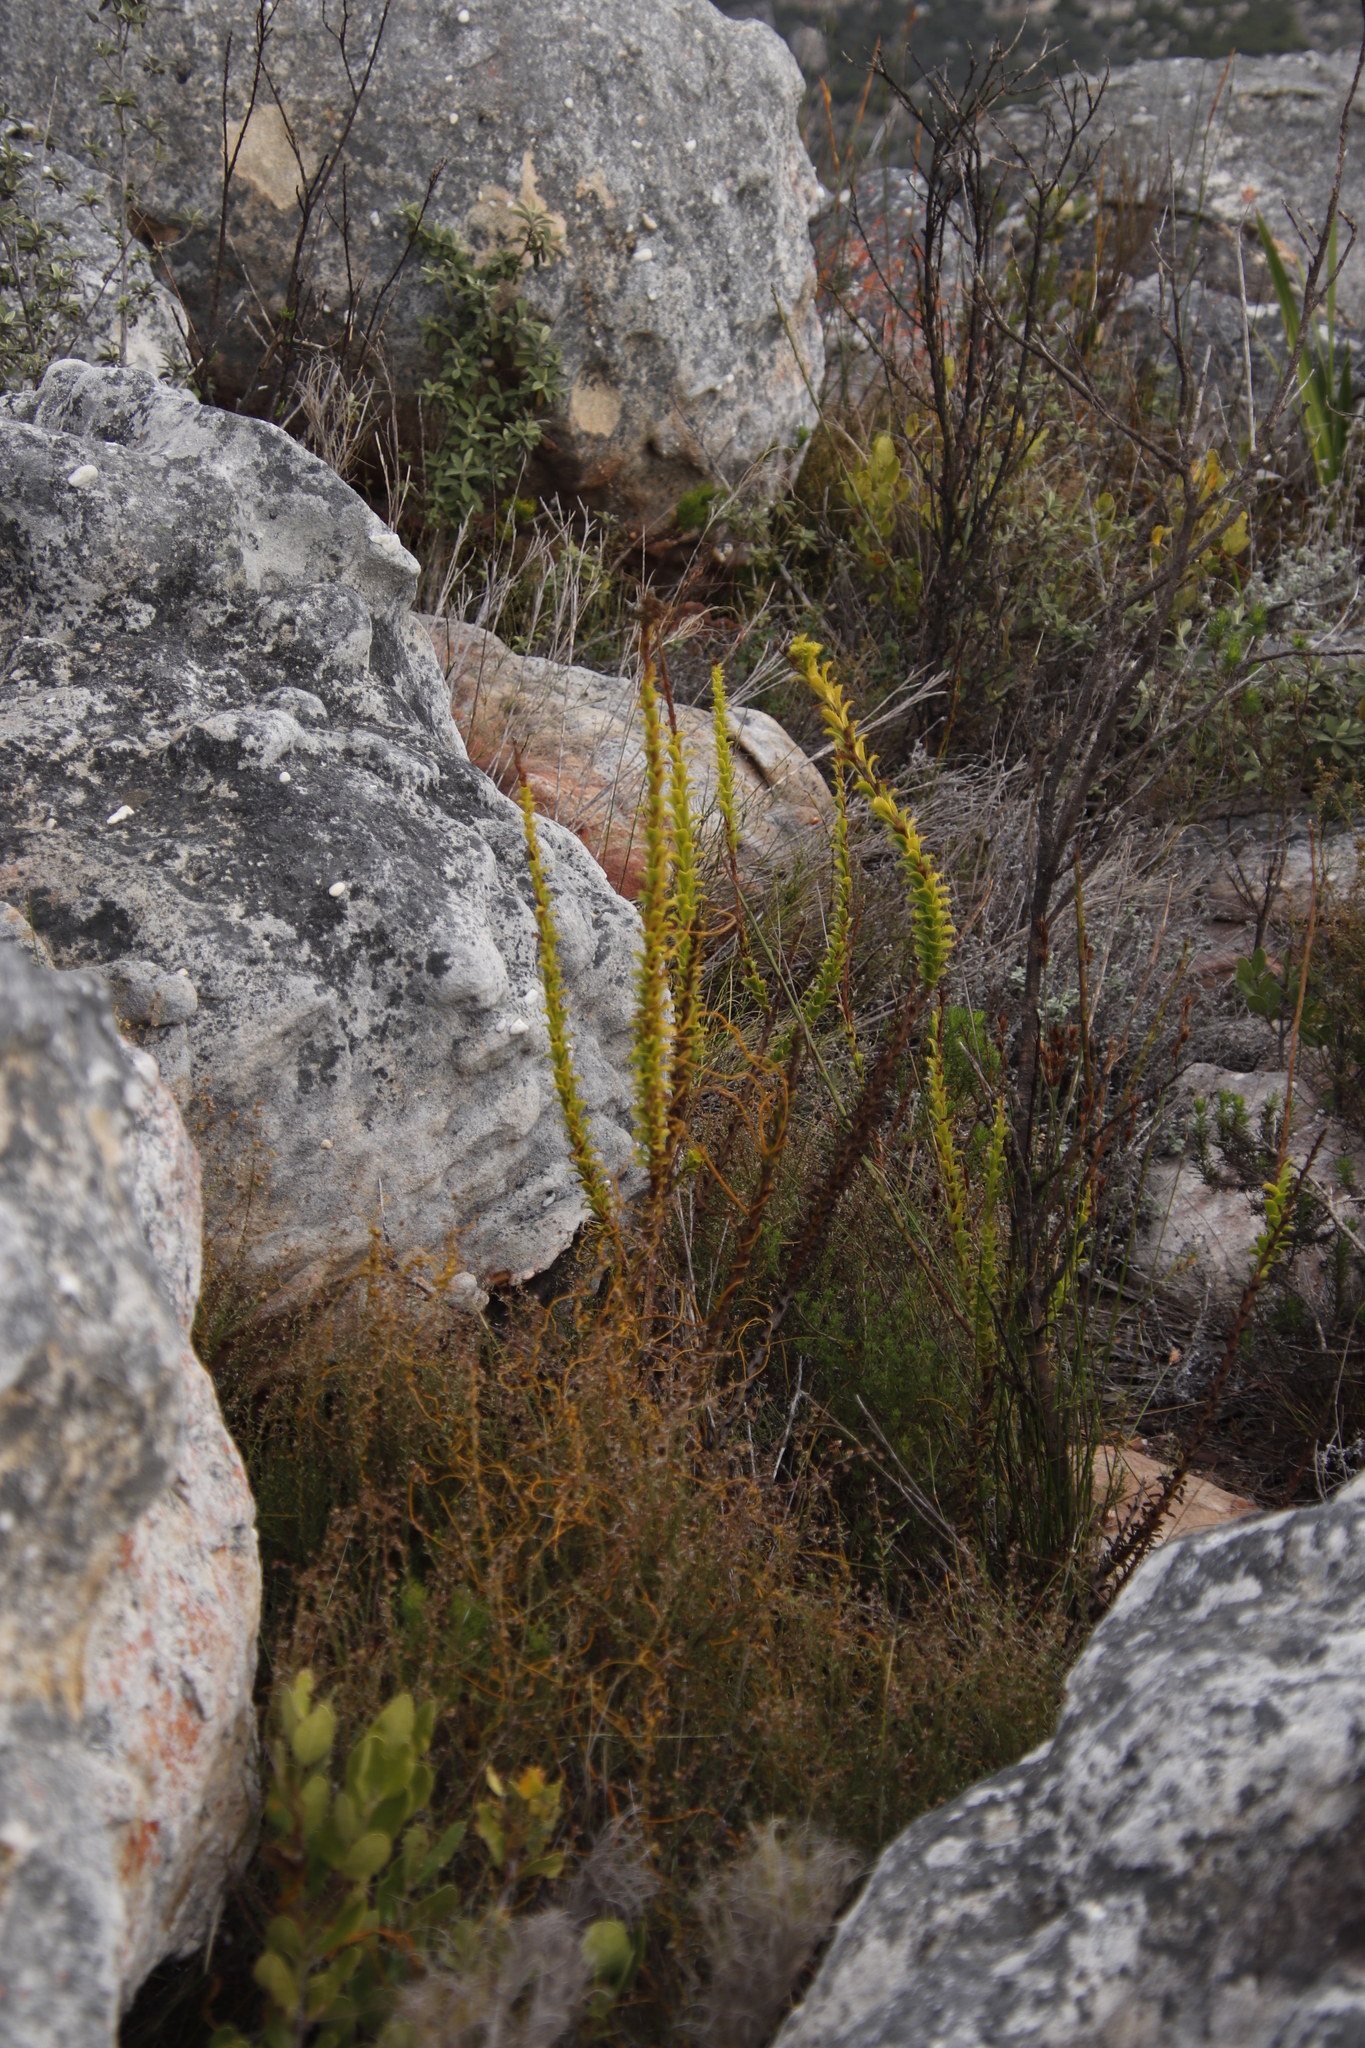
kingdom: Plantae
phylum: Tracheophyta
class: Magnoliopsida
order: Lamiales
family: Scrophulariaceae
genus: Pseudoselago
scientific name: Pseudoselago serrata
